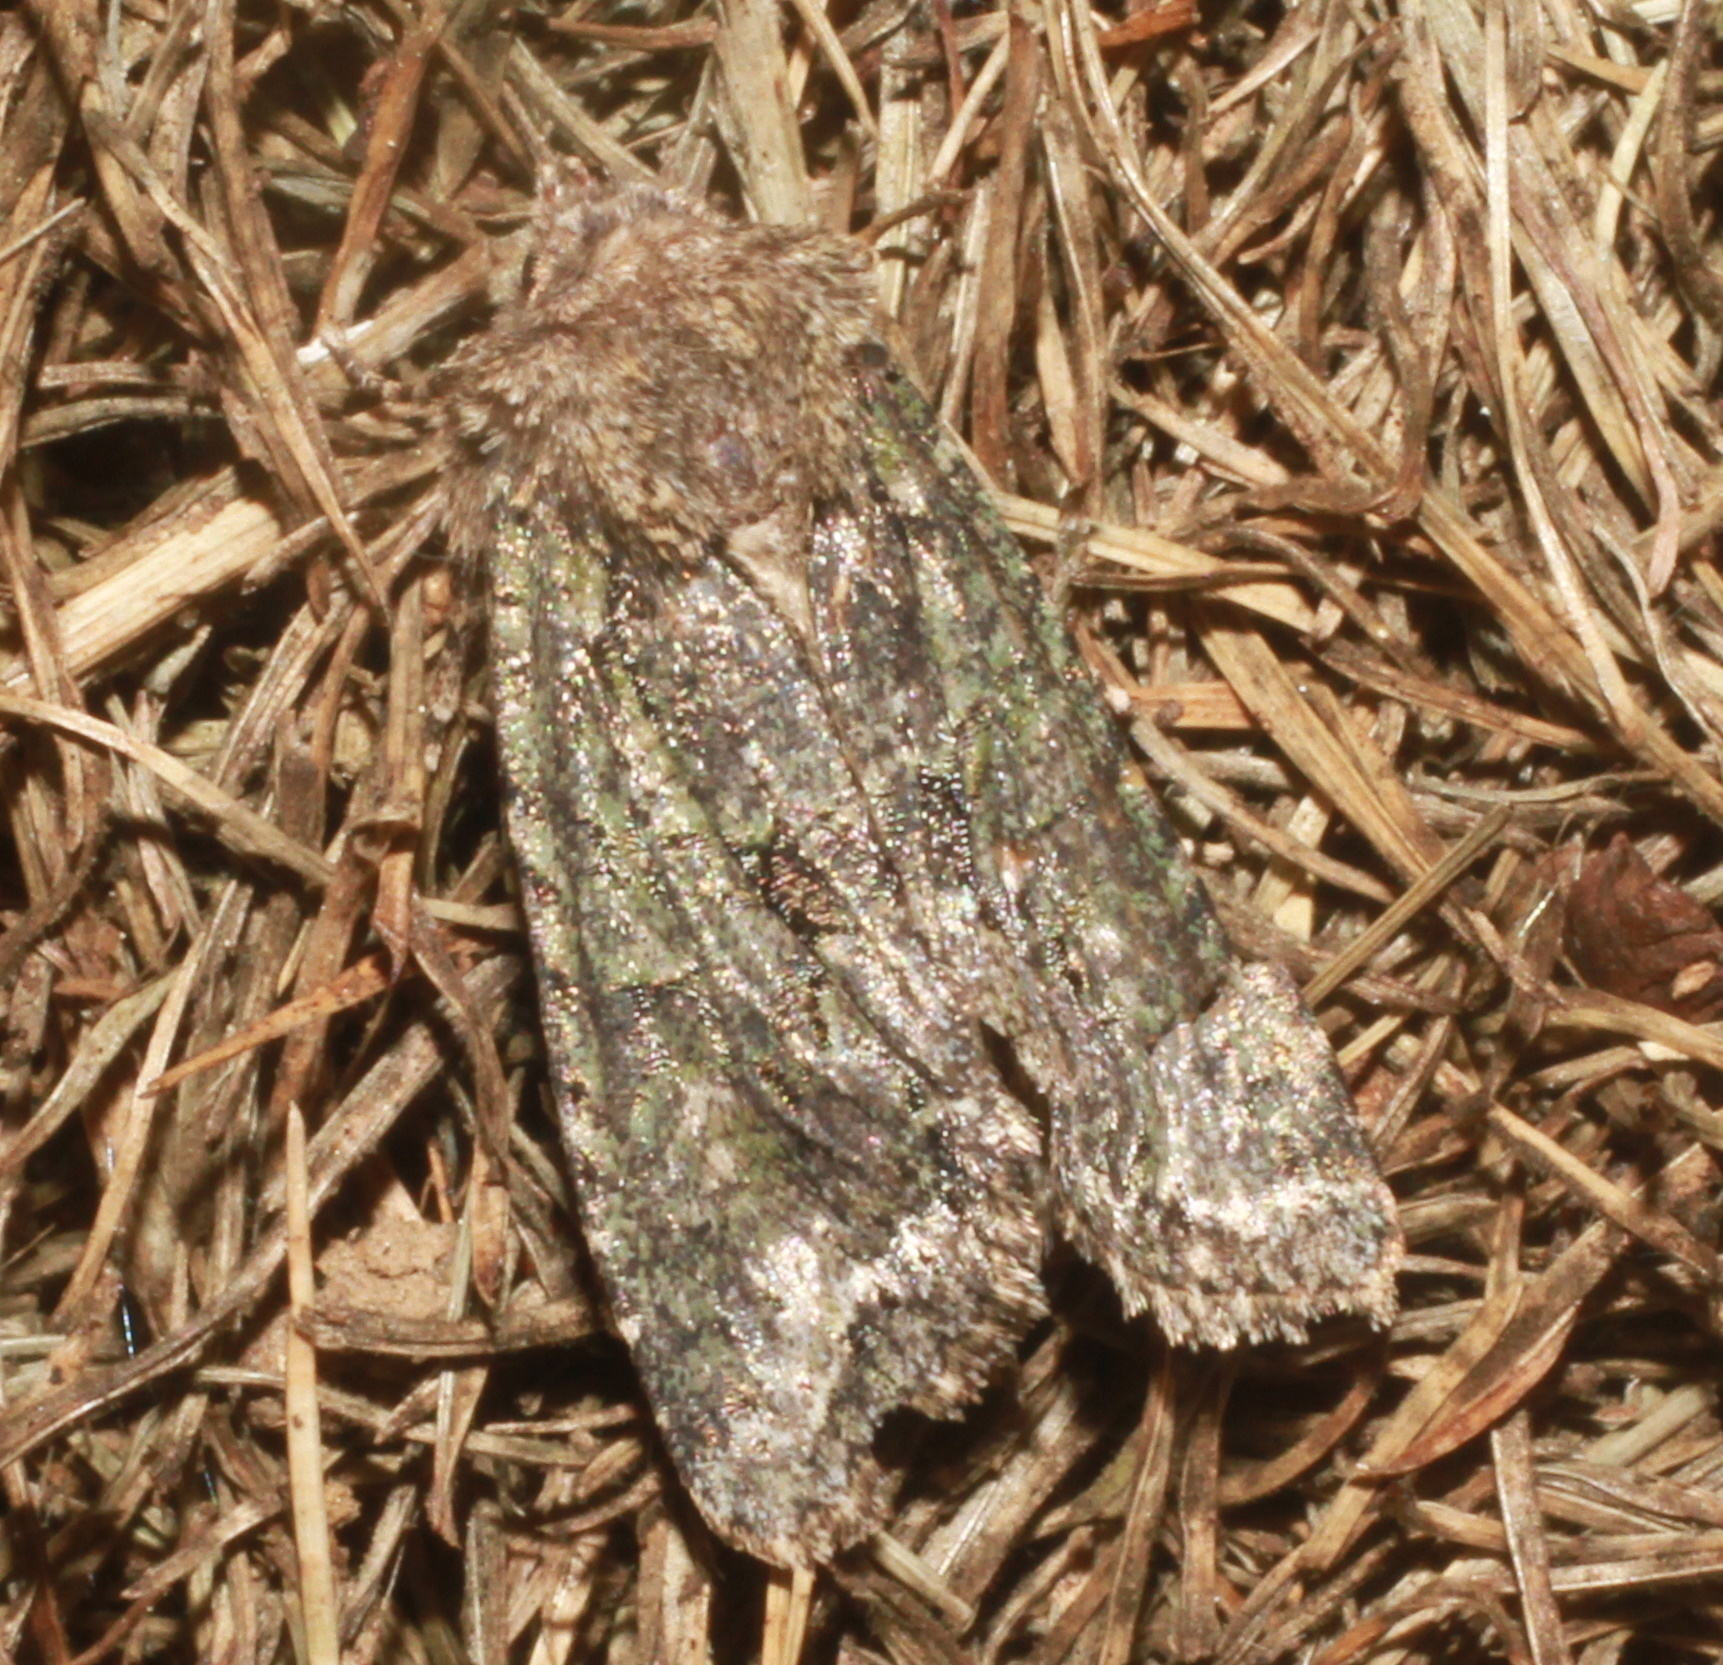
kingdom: Animalia
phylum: Arthropoda
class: Insecta
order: Lepidoptera
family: Noctuidae
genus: Dryobotodes
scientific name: Dryobotodes eremita
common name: Brindled green
